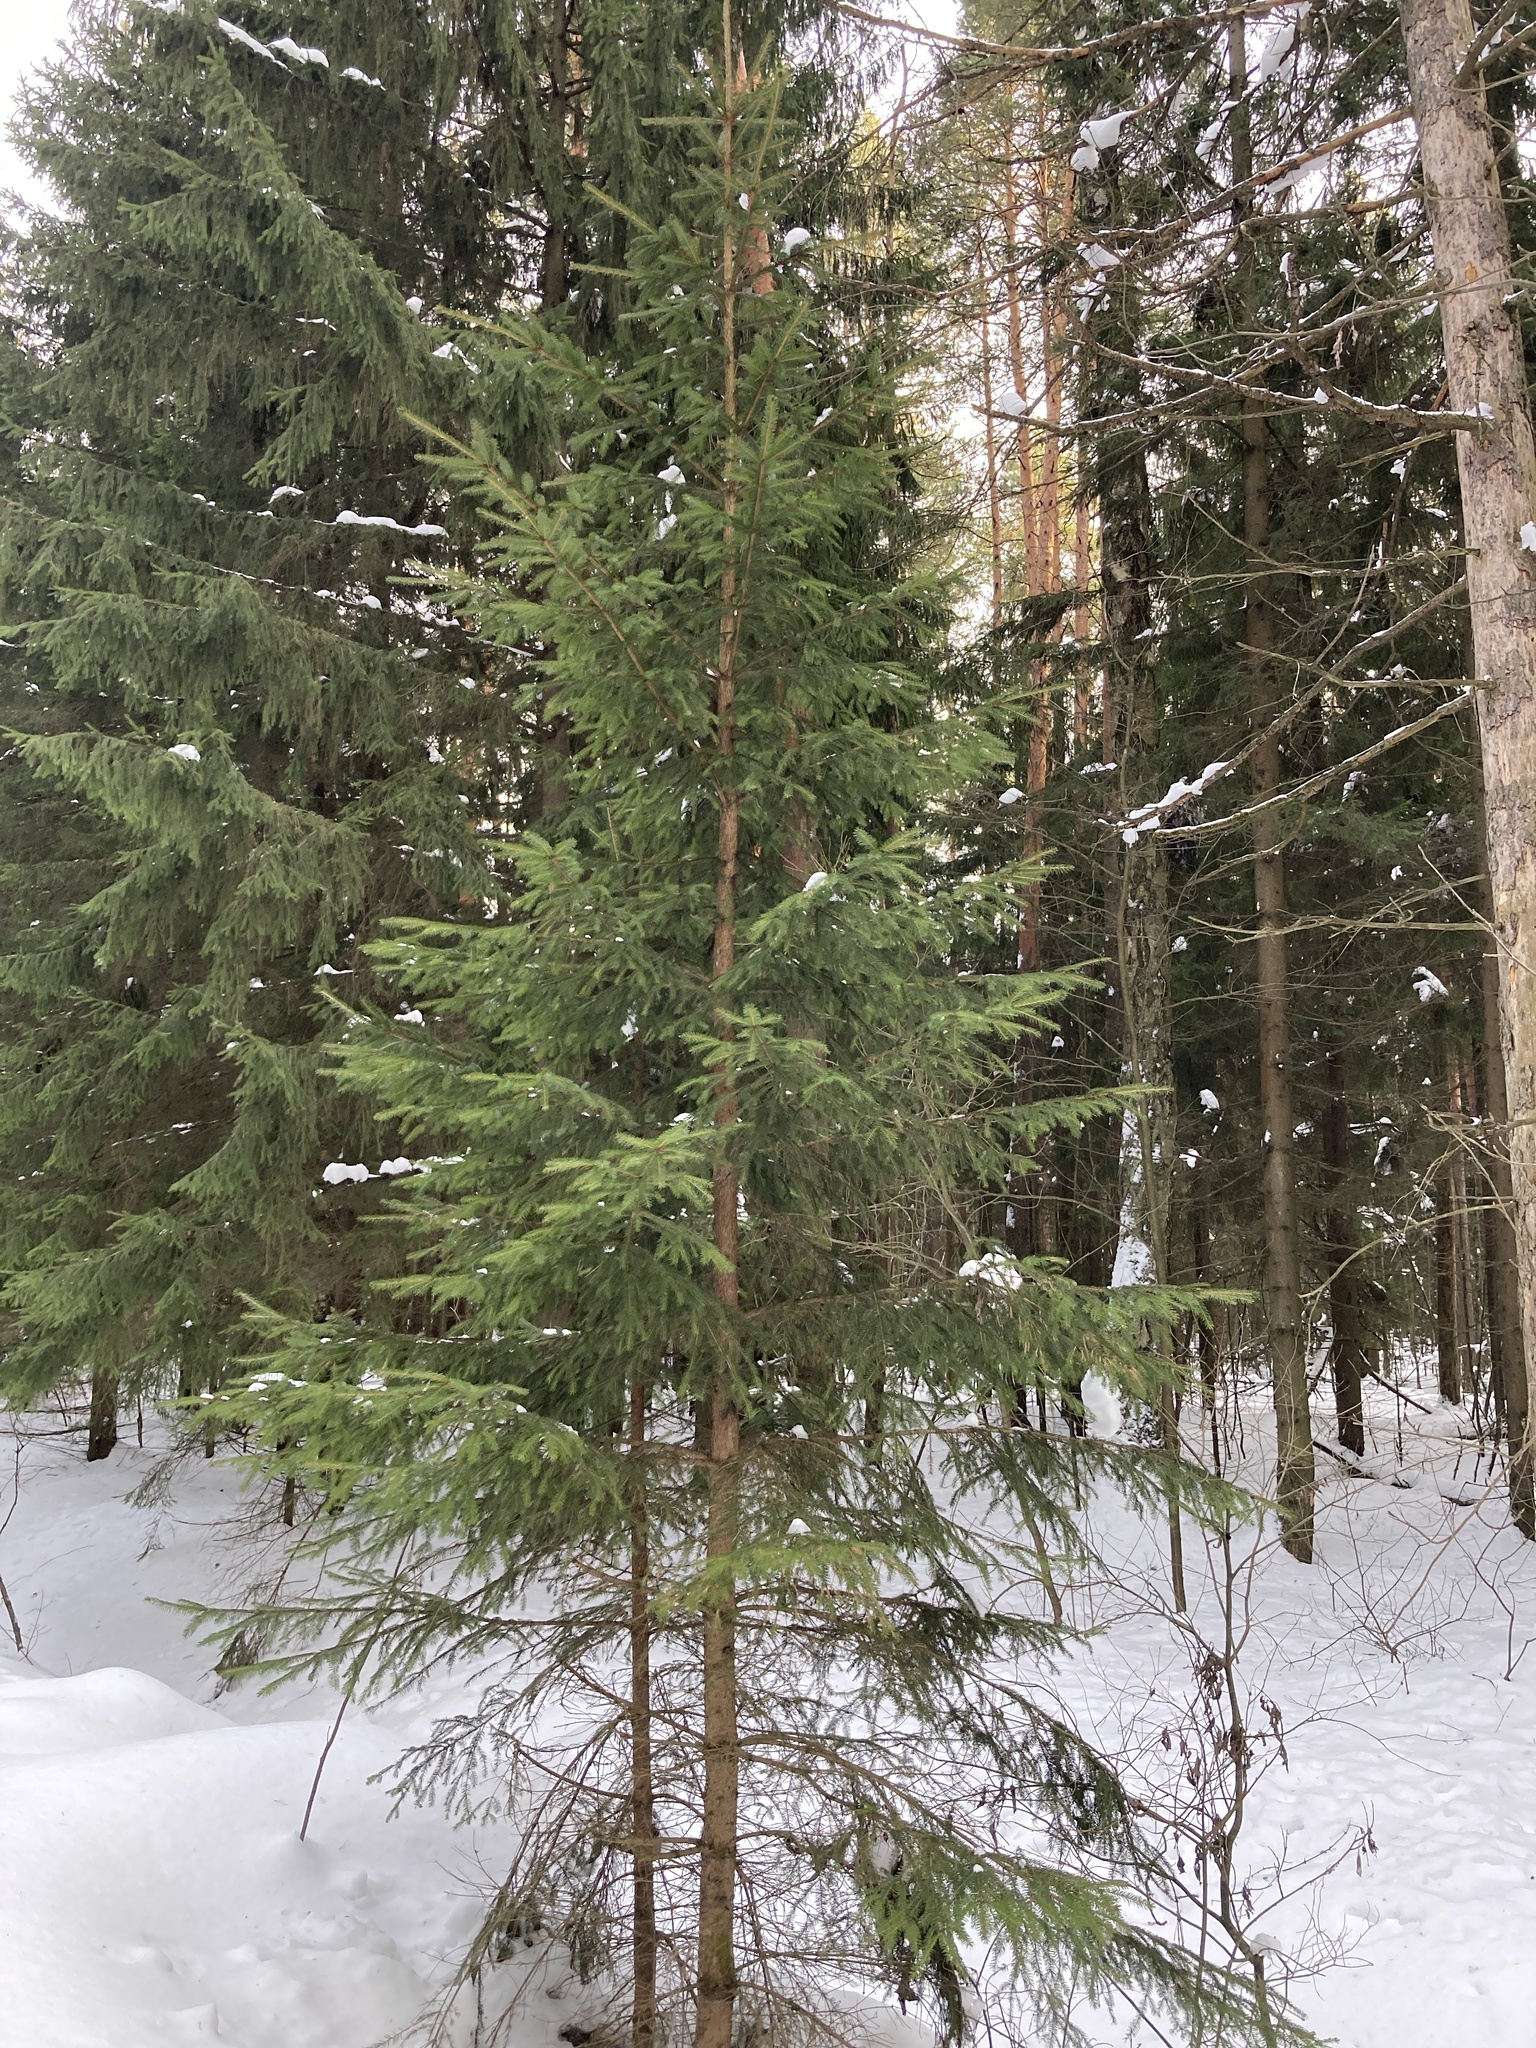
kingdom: Plantae
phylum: Tracheophyta
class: Pinopsida
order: Pinales
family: Pinaceae
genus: Picea
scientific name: Picea abies
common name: Norway spruce
